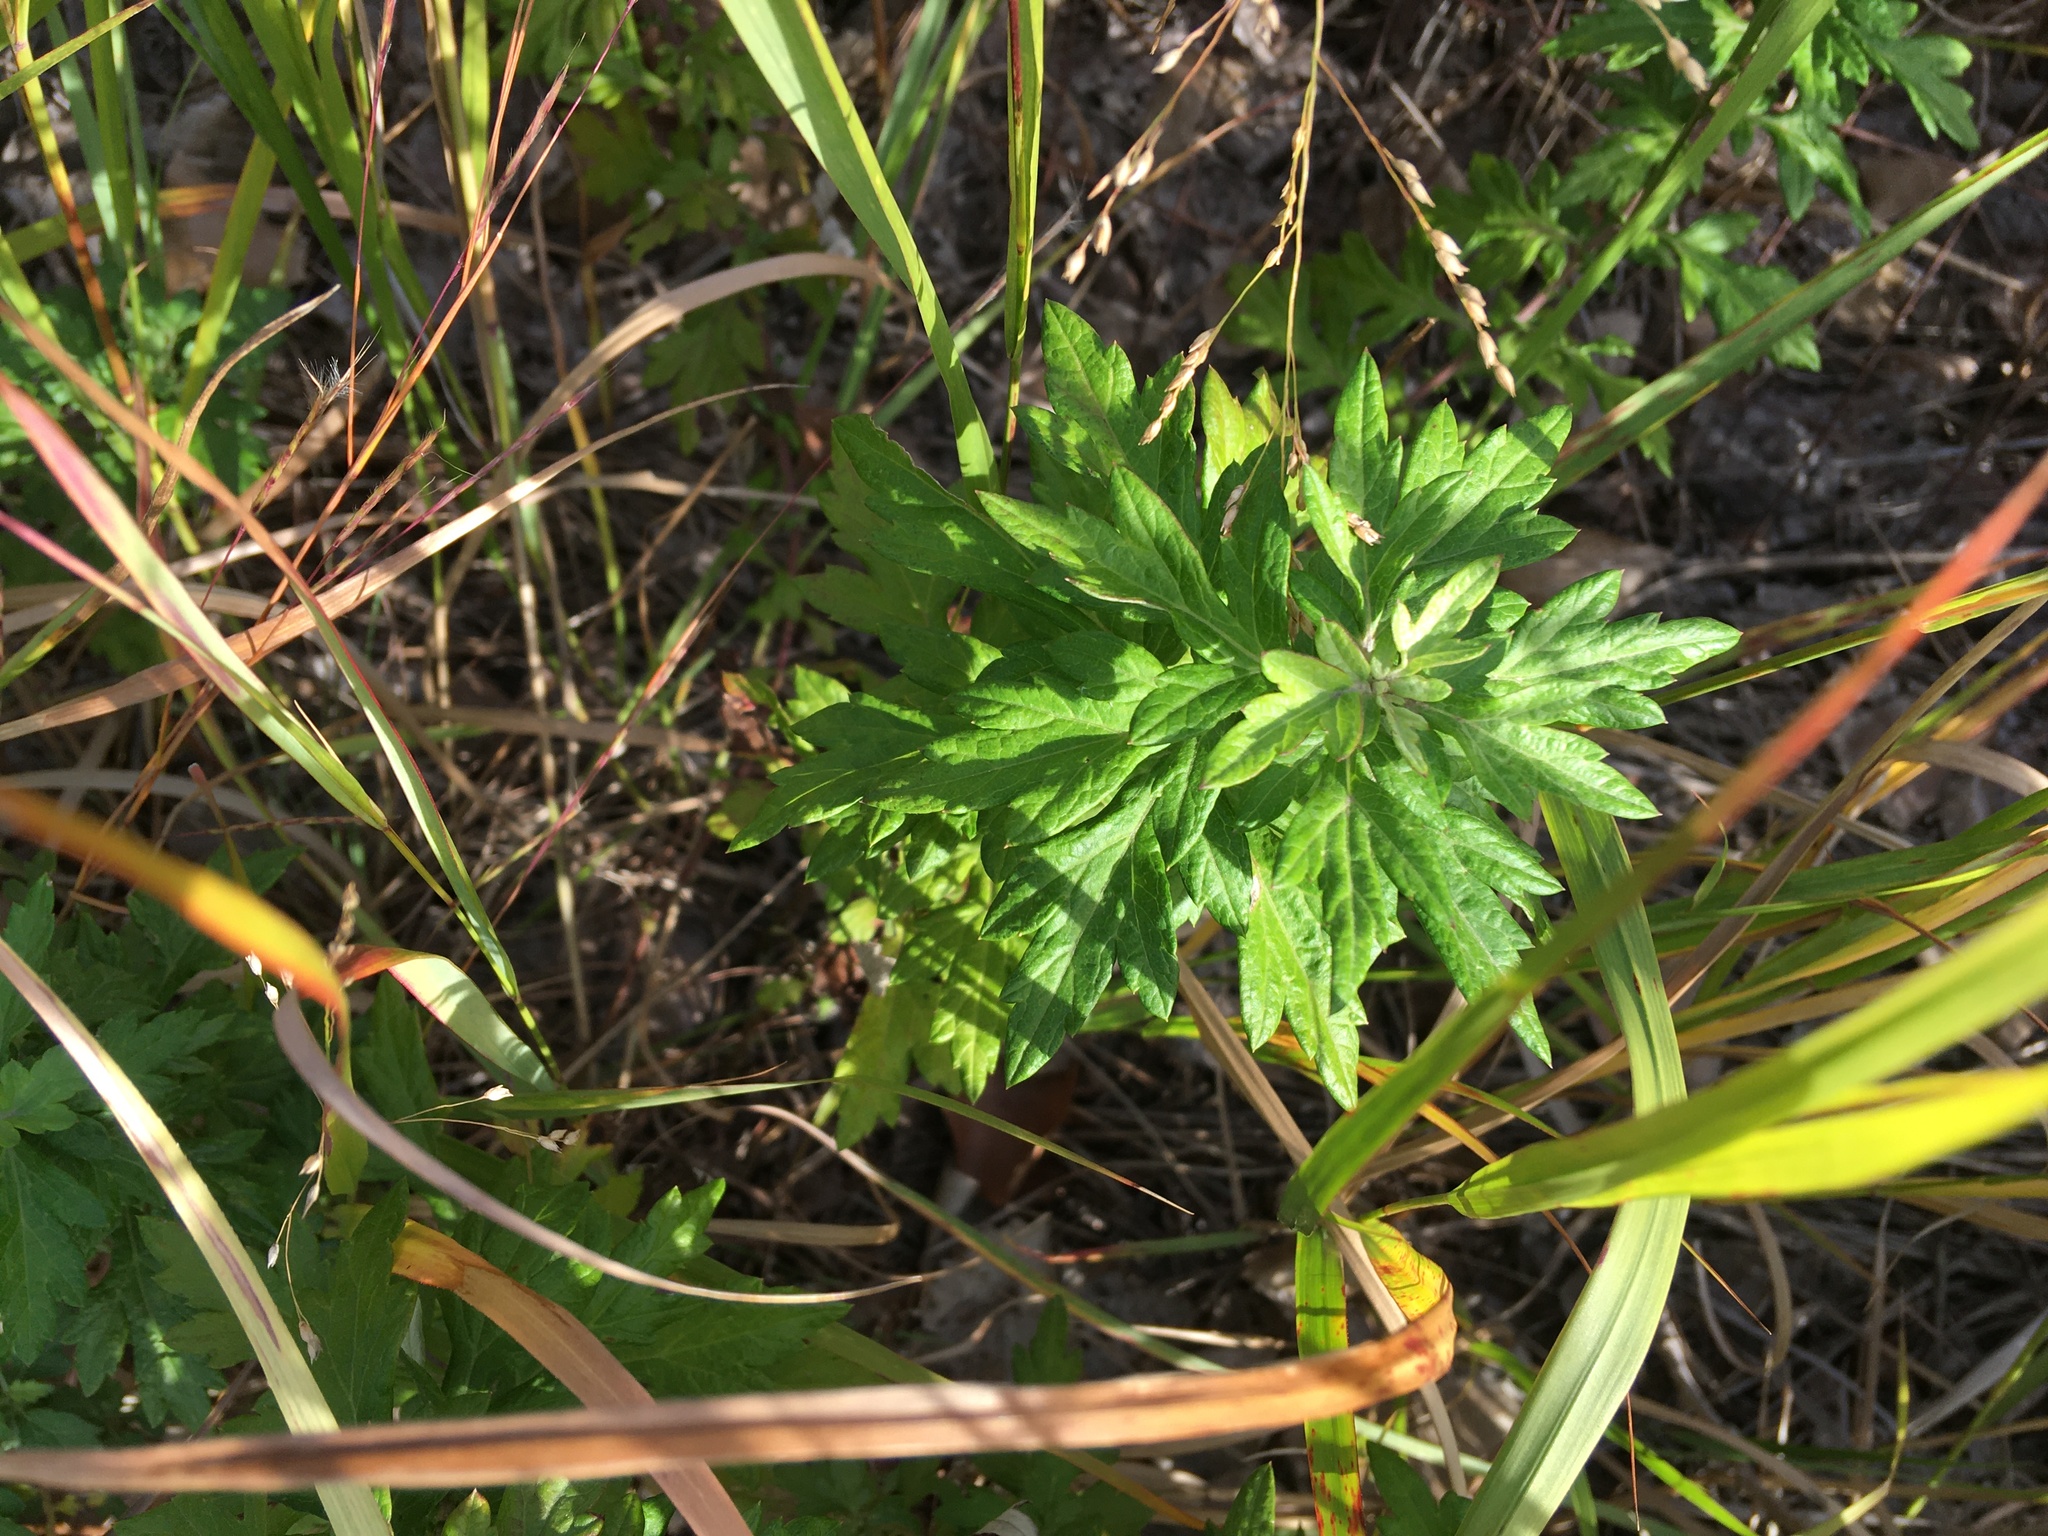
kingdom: Plantae
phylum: Tracheophyta
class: Magnoliopsida
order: Asterales
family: Asteraceae
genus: Artemisia
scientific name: Artemisia vulgaris
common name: Mugwort
